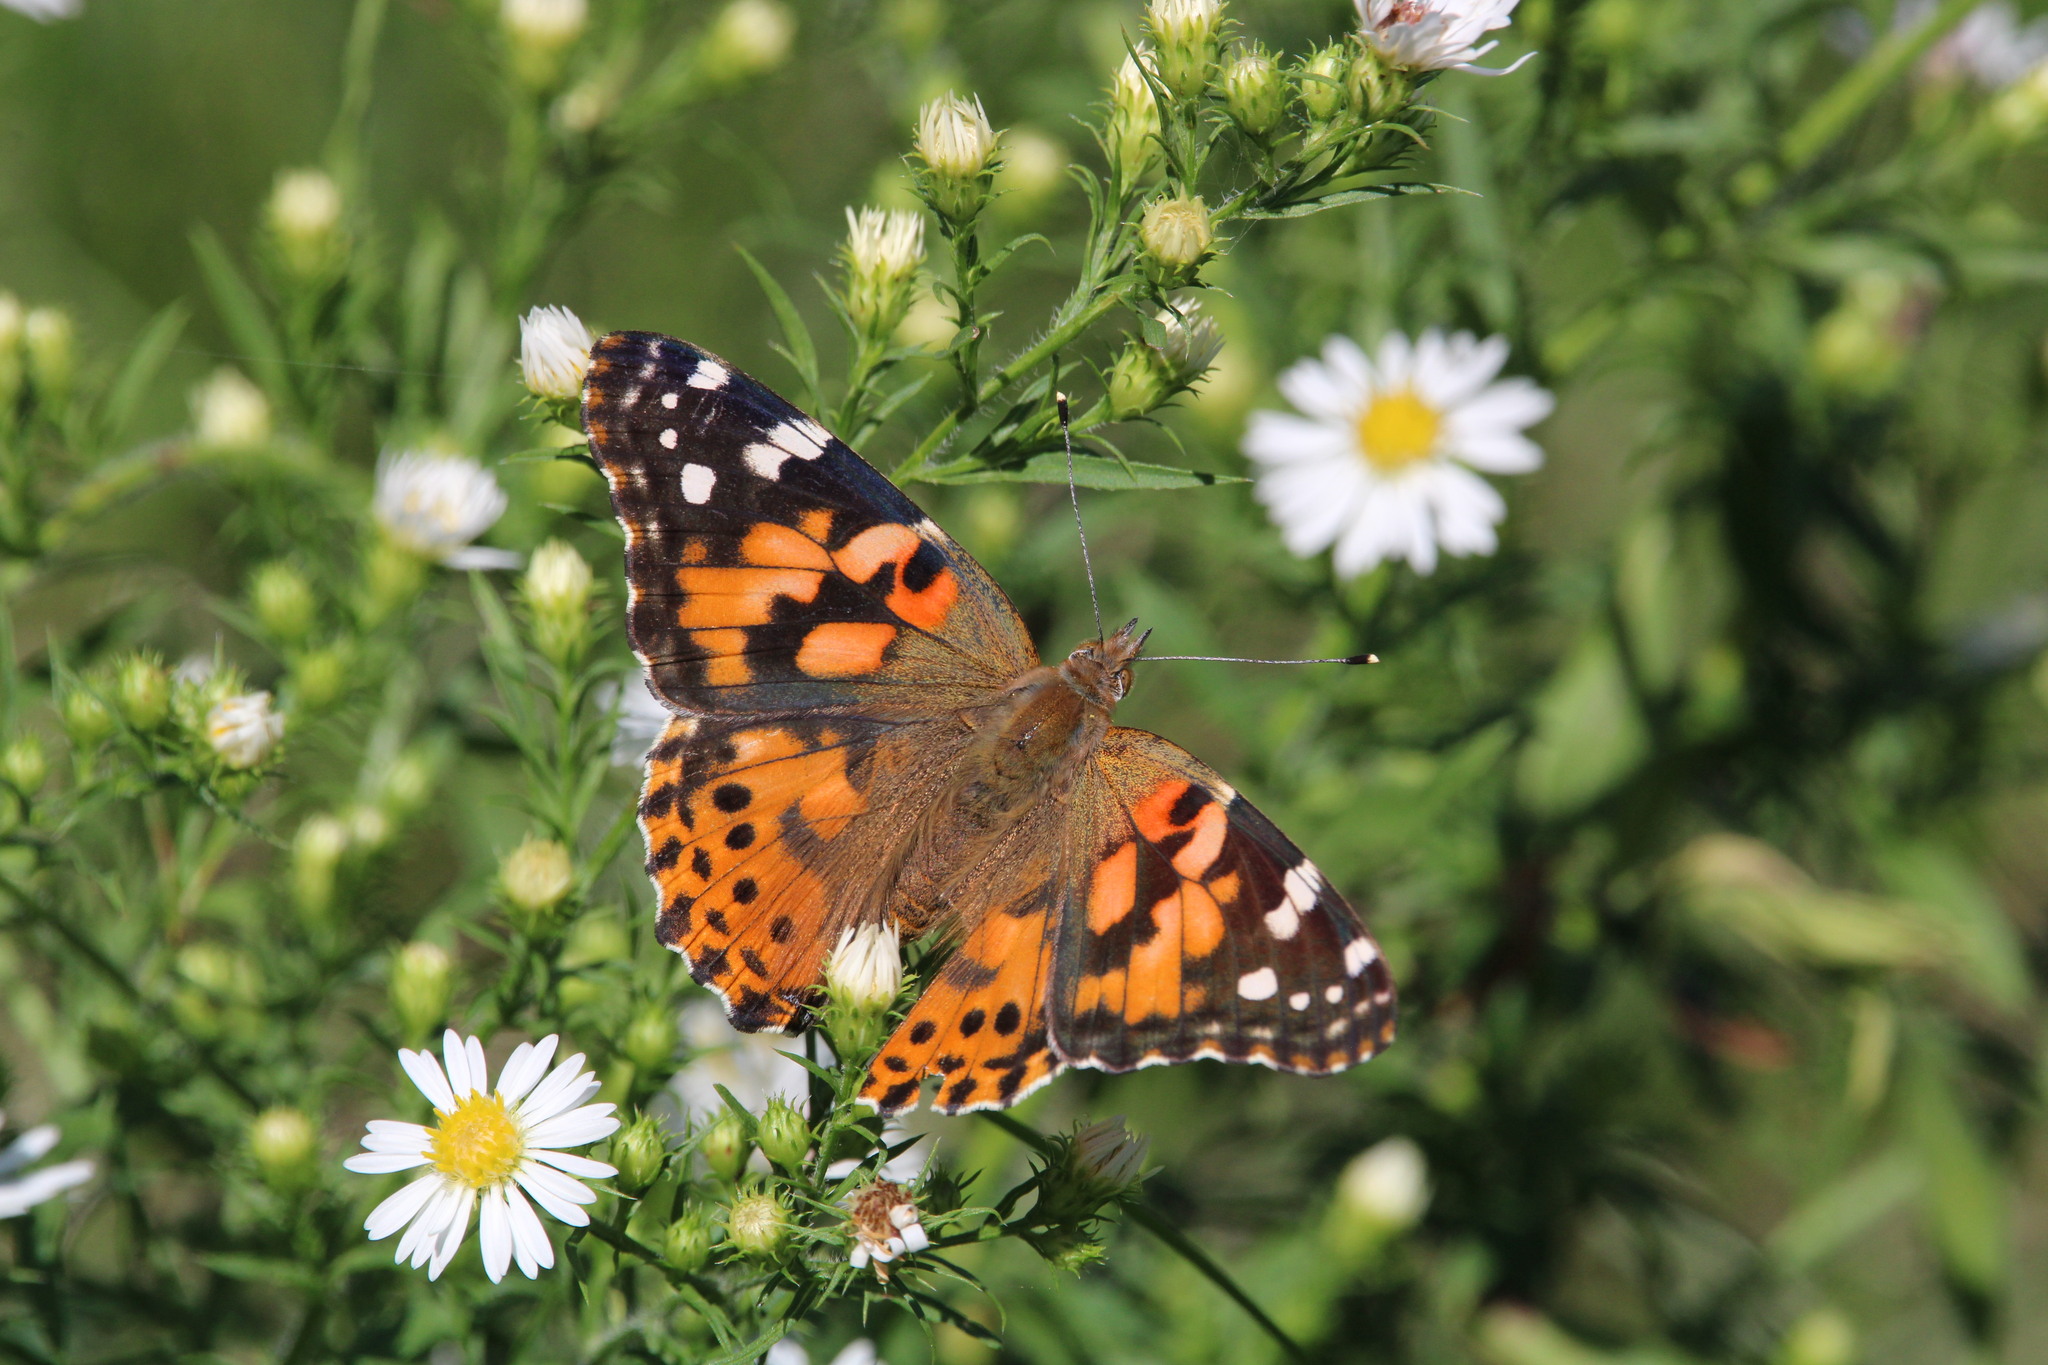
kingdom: Animalia
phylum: Arthropoda
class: Insecta
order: Lepidoptera
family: Nymphalidae
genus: Vanessa
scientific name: Vanessa cardui
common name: Painted lady
